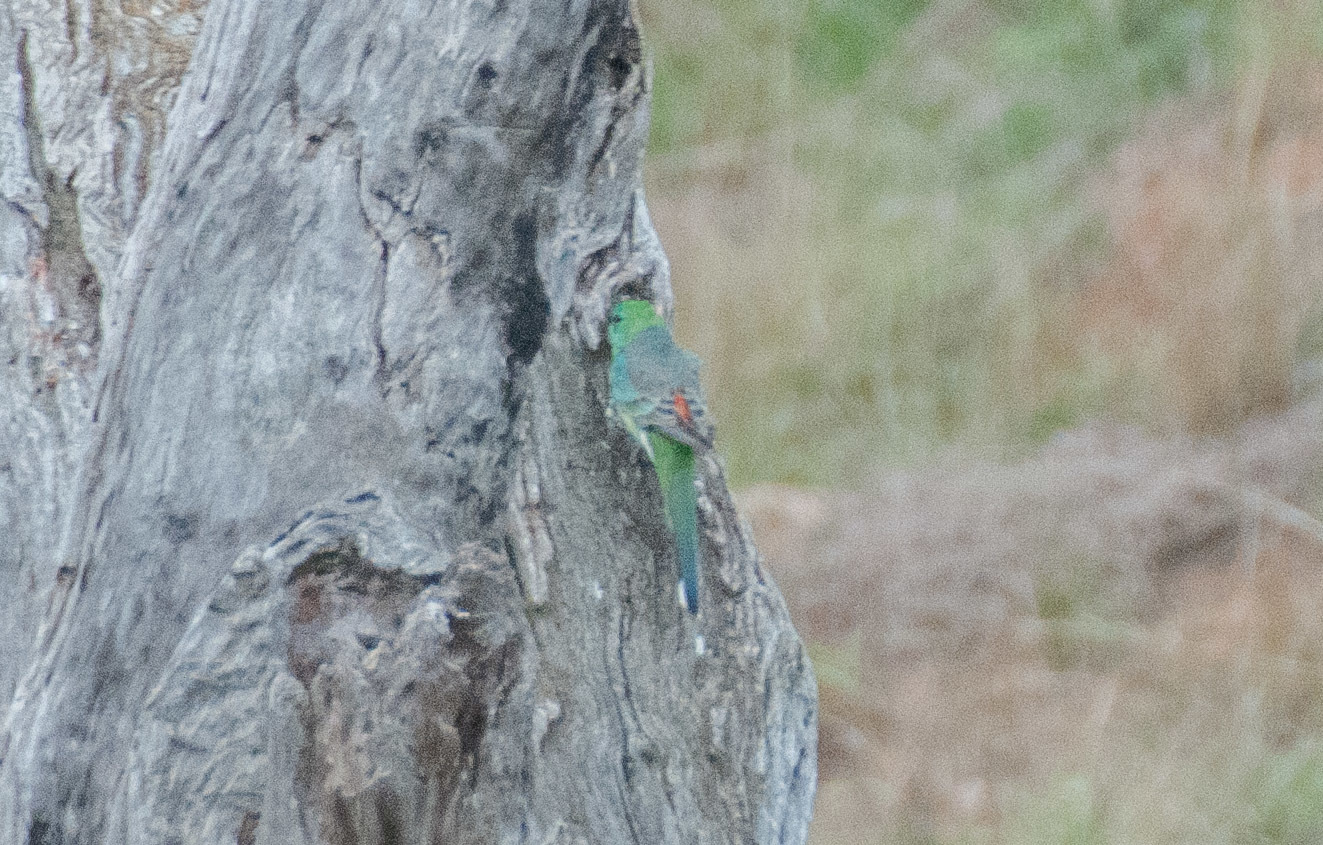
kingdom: Animalia
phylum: Chordata
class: Aves
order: Psittaciformes
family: Psittacidae
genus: Psephotus
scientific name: Psephotus haematonotus
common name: Red-rumped parrot
